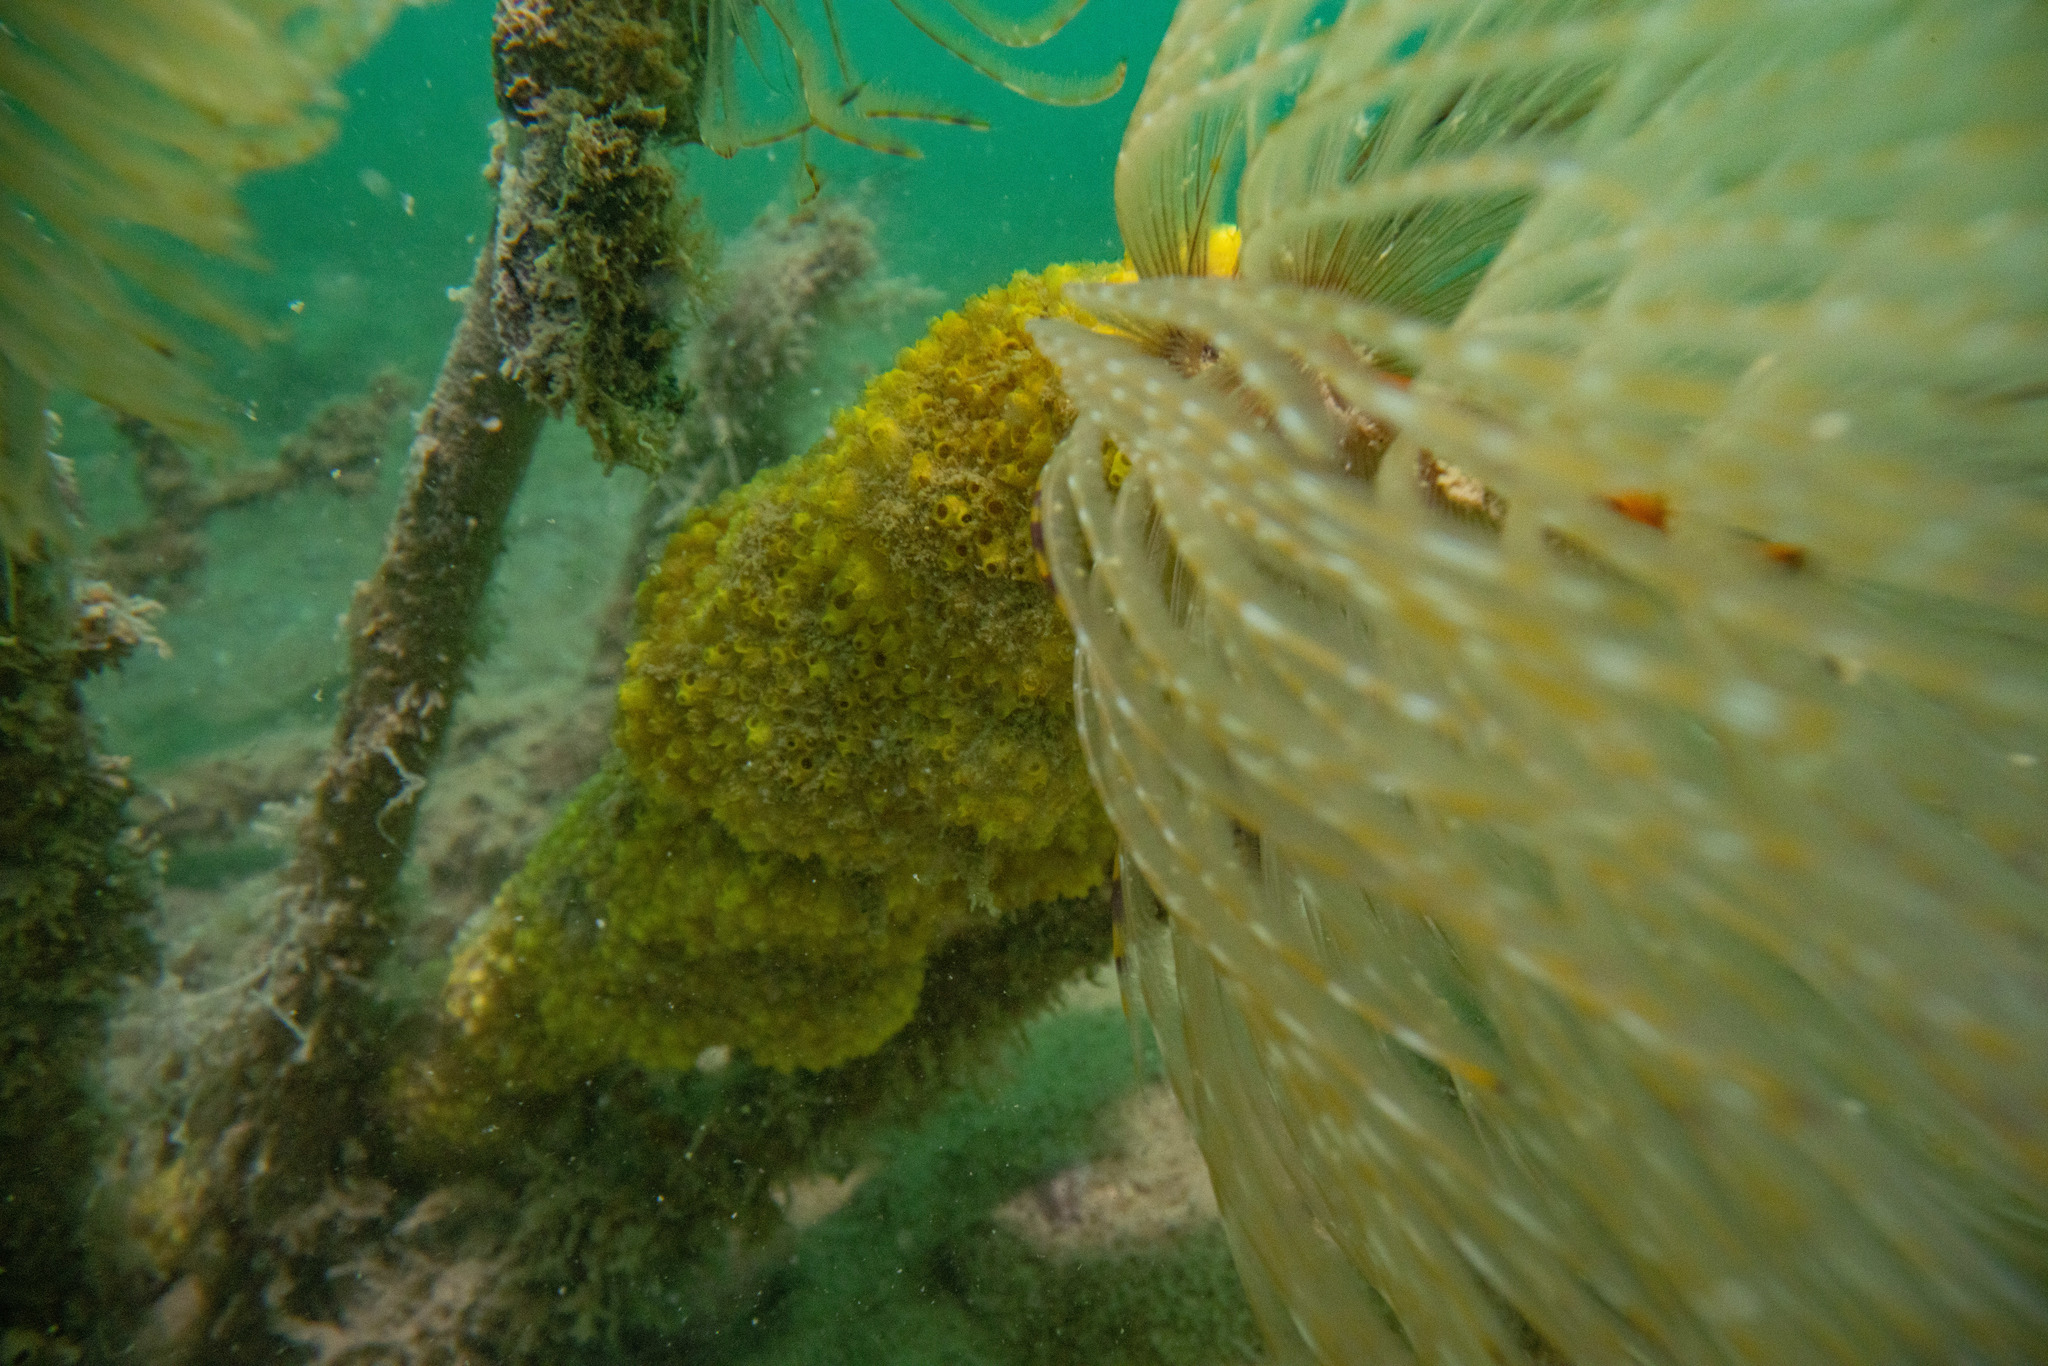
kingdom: Animalia
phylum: Chordata
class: Ascidiacea
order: Stolidobranchia
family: Styelidae
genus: Symplegma
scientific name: Symplegma brakenhielmi
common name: Ascidian
